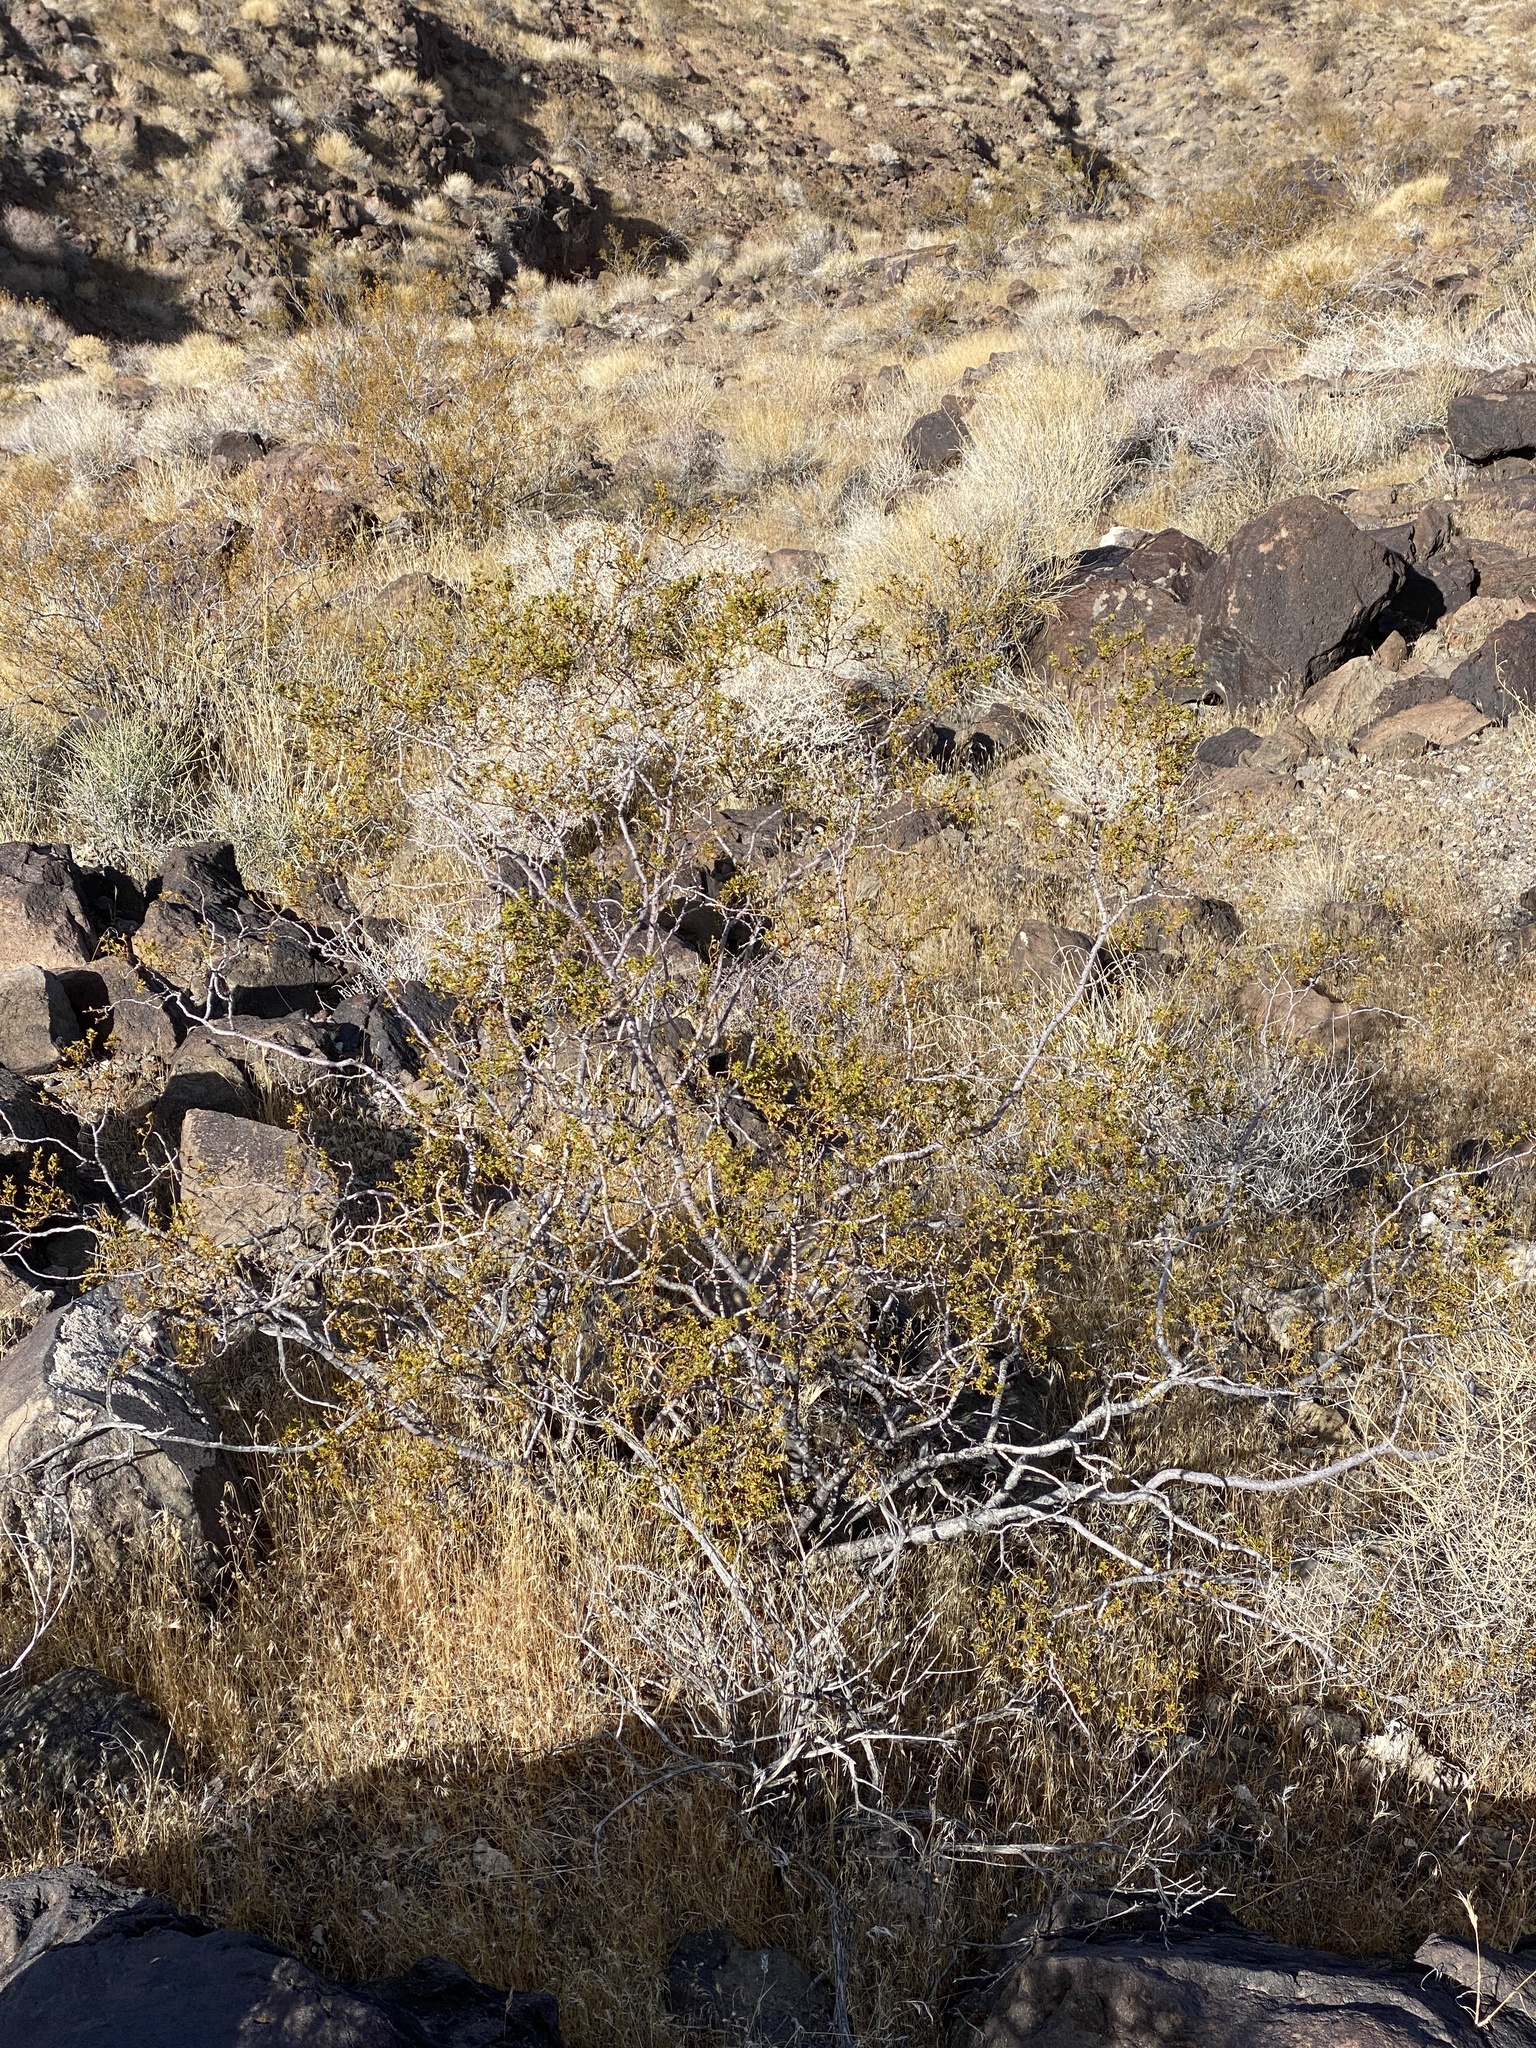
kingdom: Plantae
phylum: Tracheophyta
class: Magnoliopsida
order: Zygophyllales
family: Zygophyllaceae
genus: Larrea
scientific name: Larrea tridentata
